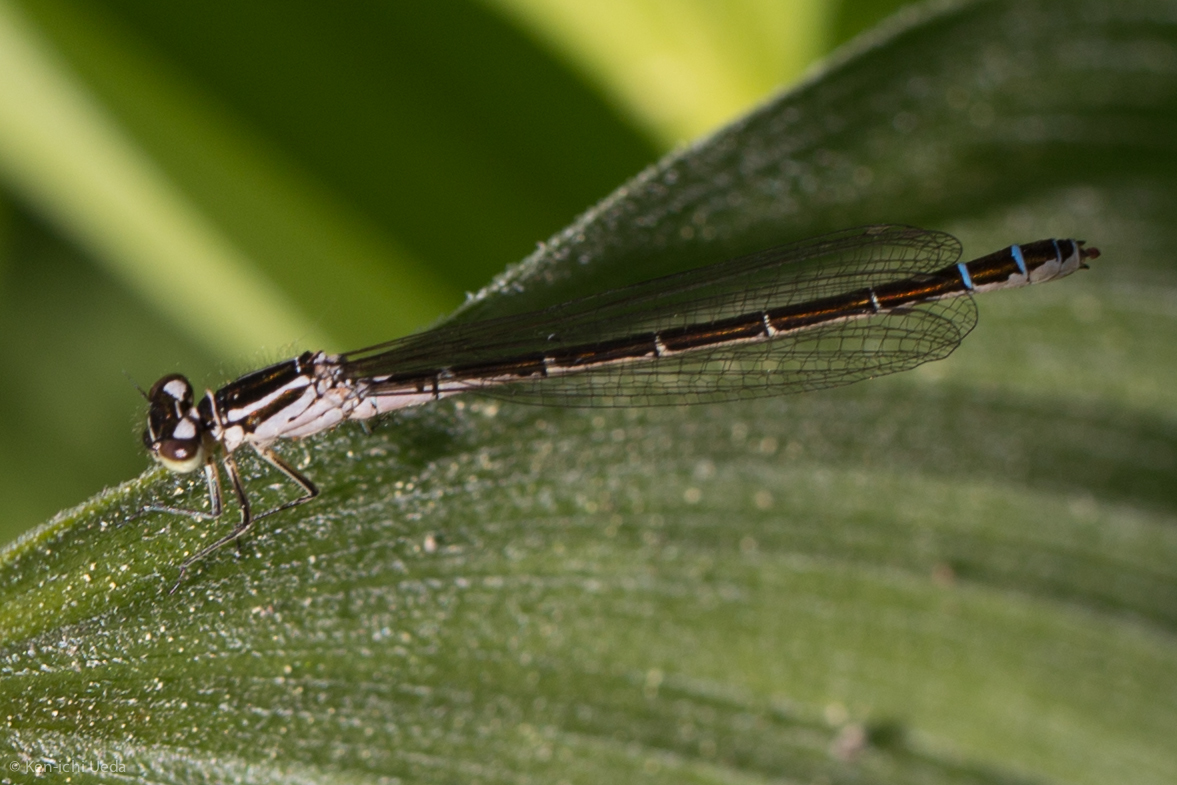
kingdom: Animalia
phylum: Arthropoda
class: Insecta
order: Odonata
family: Coenagrionidae
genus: Coenagrion
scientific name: Coenagrion resolutum
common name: Taiga bluet
